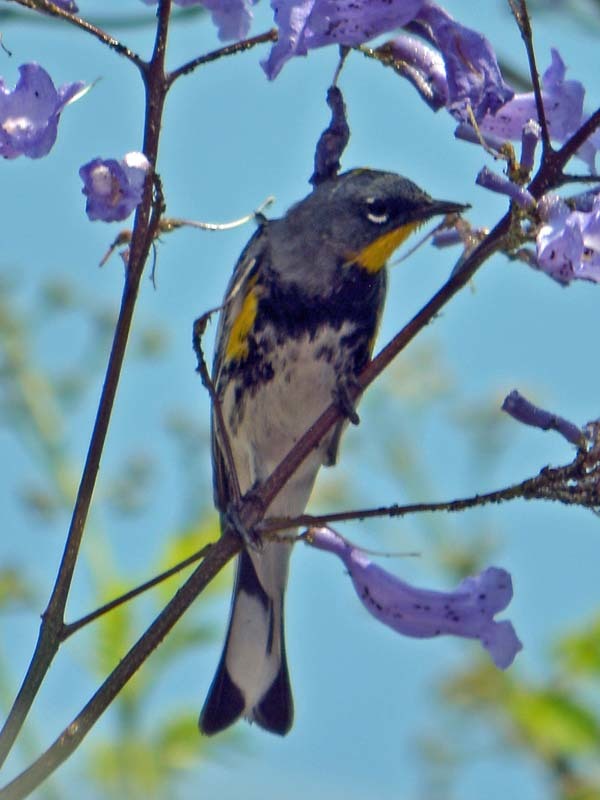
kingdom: Animalia
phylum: Chordata
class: Aves
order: Passeriformes
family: Parulidae
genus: Setophaga
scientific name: Setophaga auduboni
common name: Audubon's warbler
